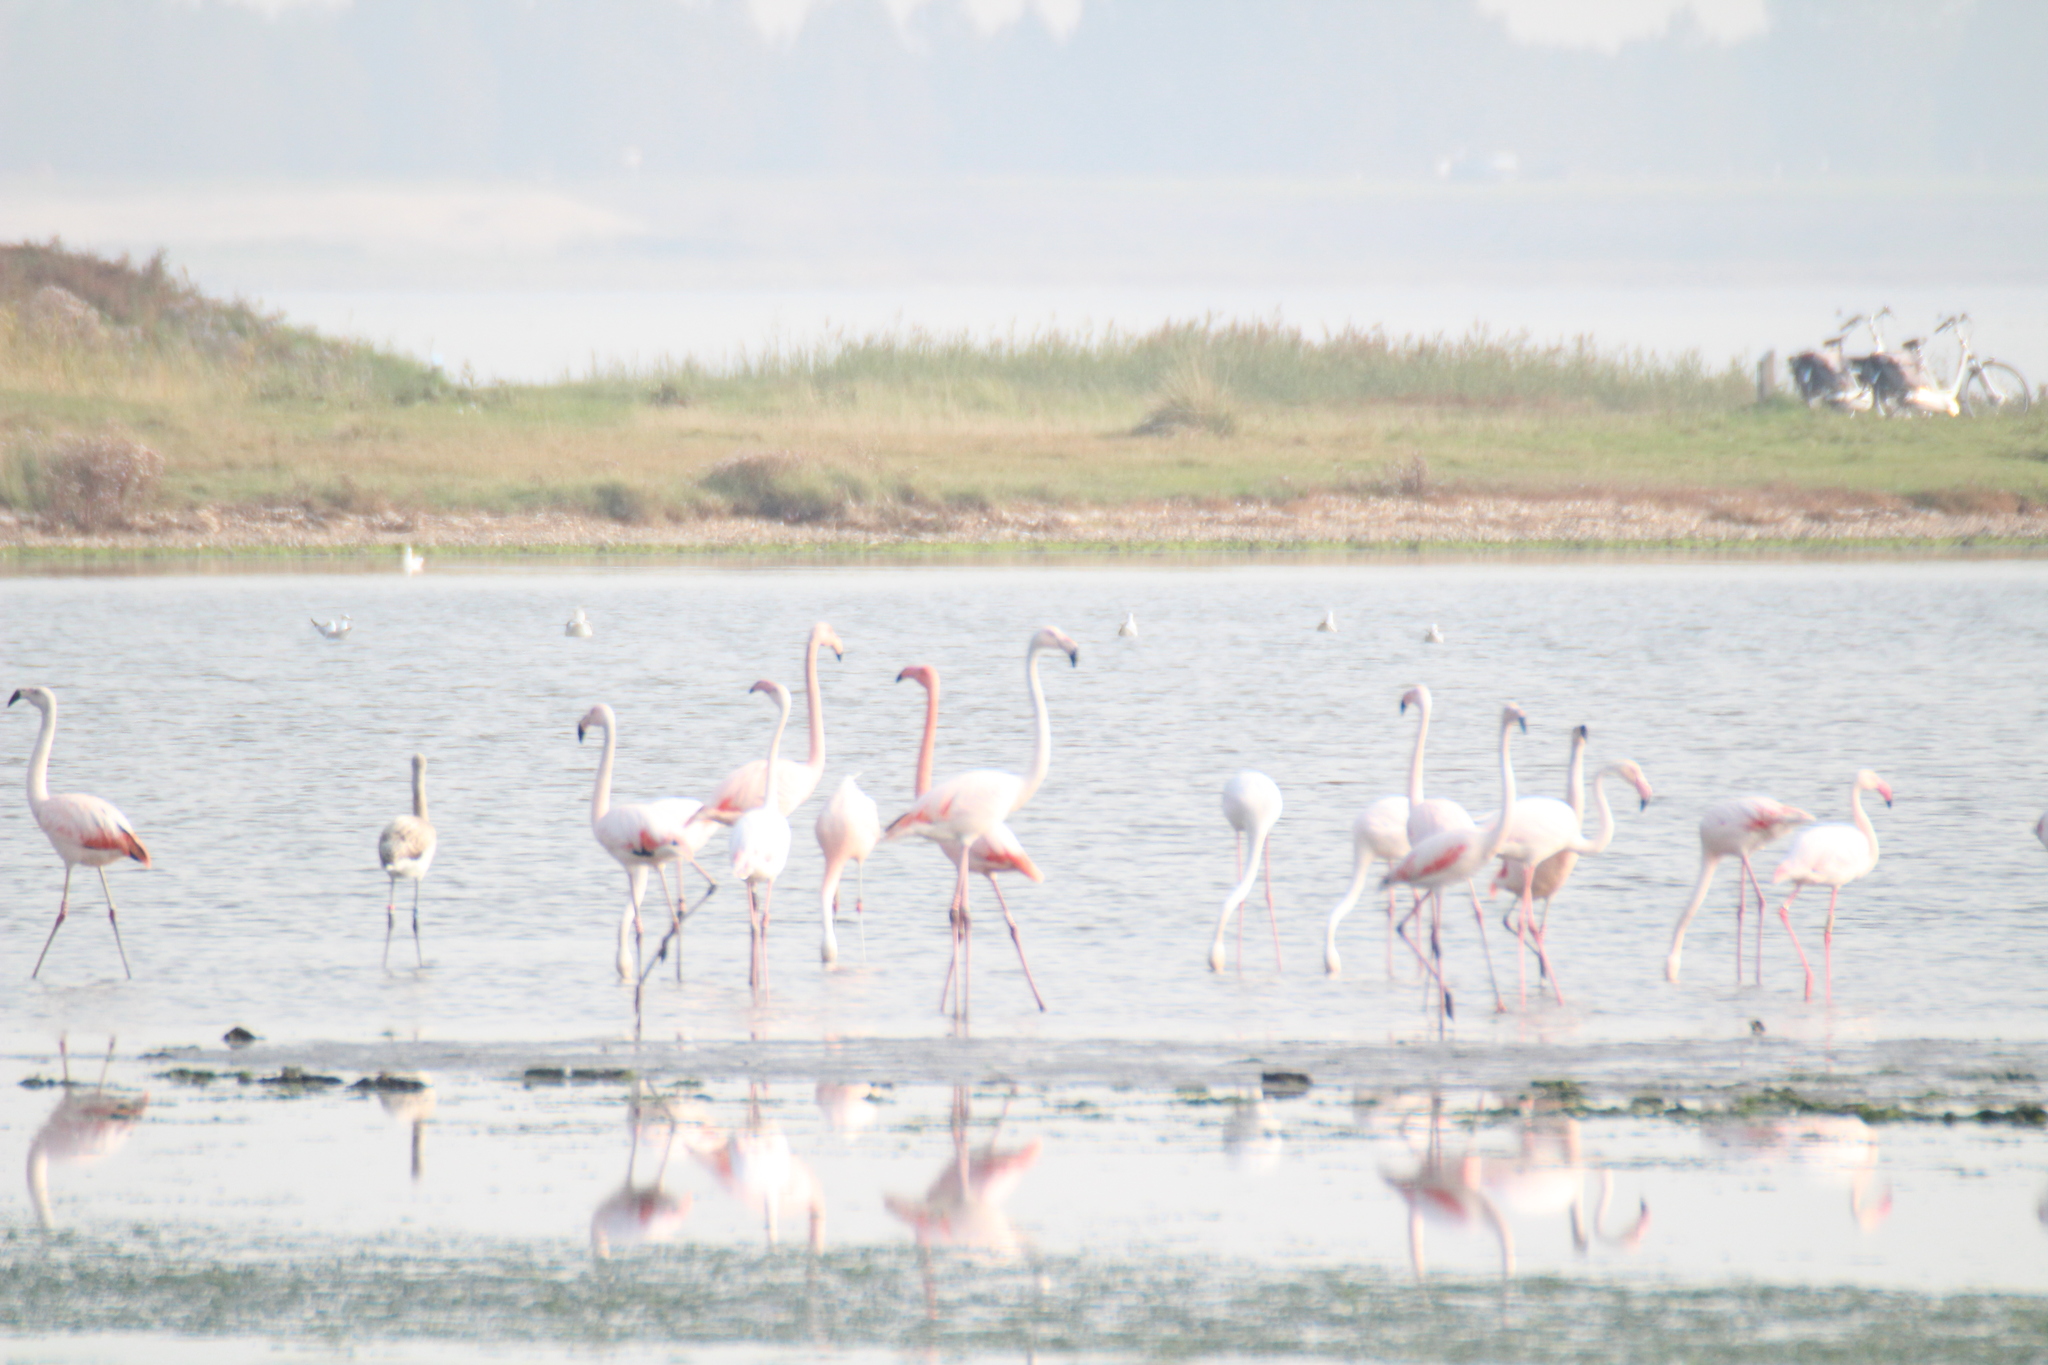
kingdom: Animalia
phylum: Chordata
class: Aves
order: Phoenicopteriformes
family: Phoenicopteridae
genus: Phoenicopterus
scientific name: Phoenicopterus roseus
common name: Greater flamingo
